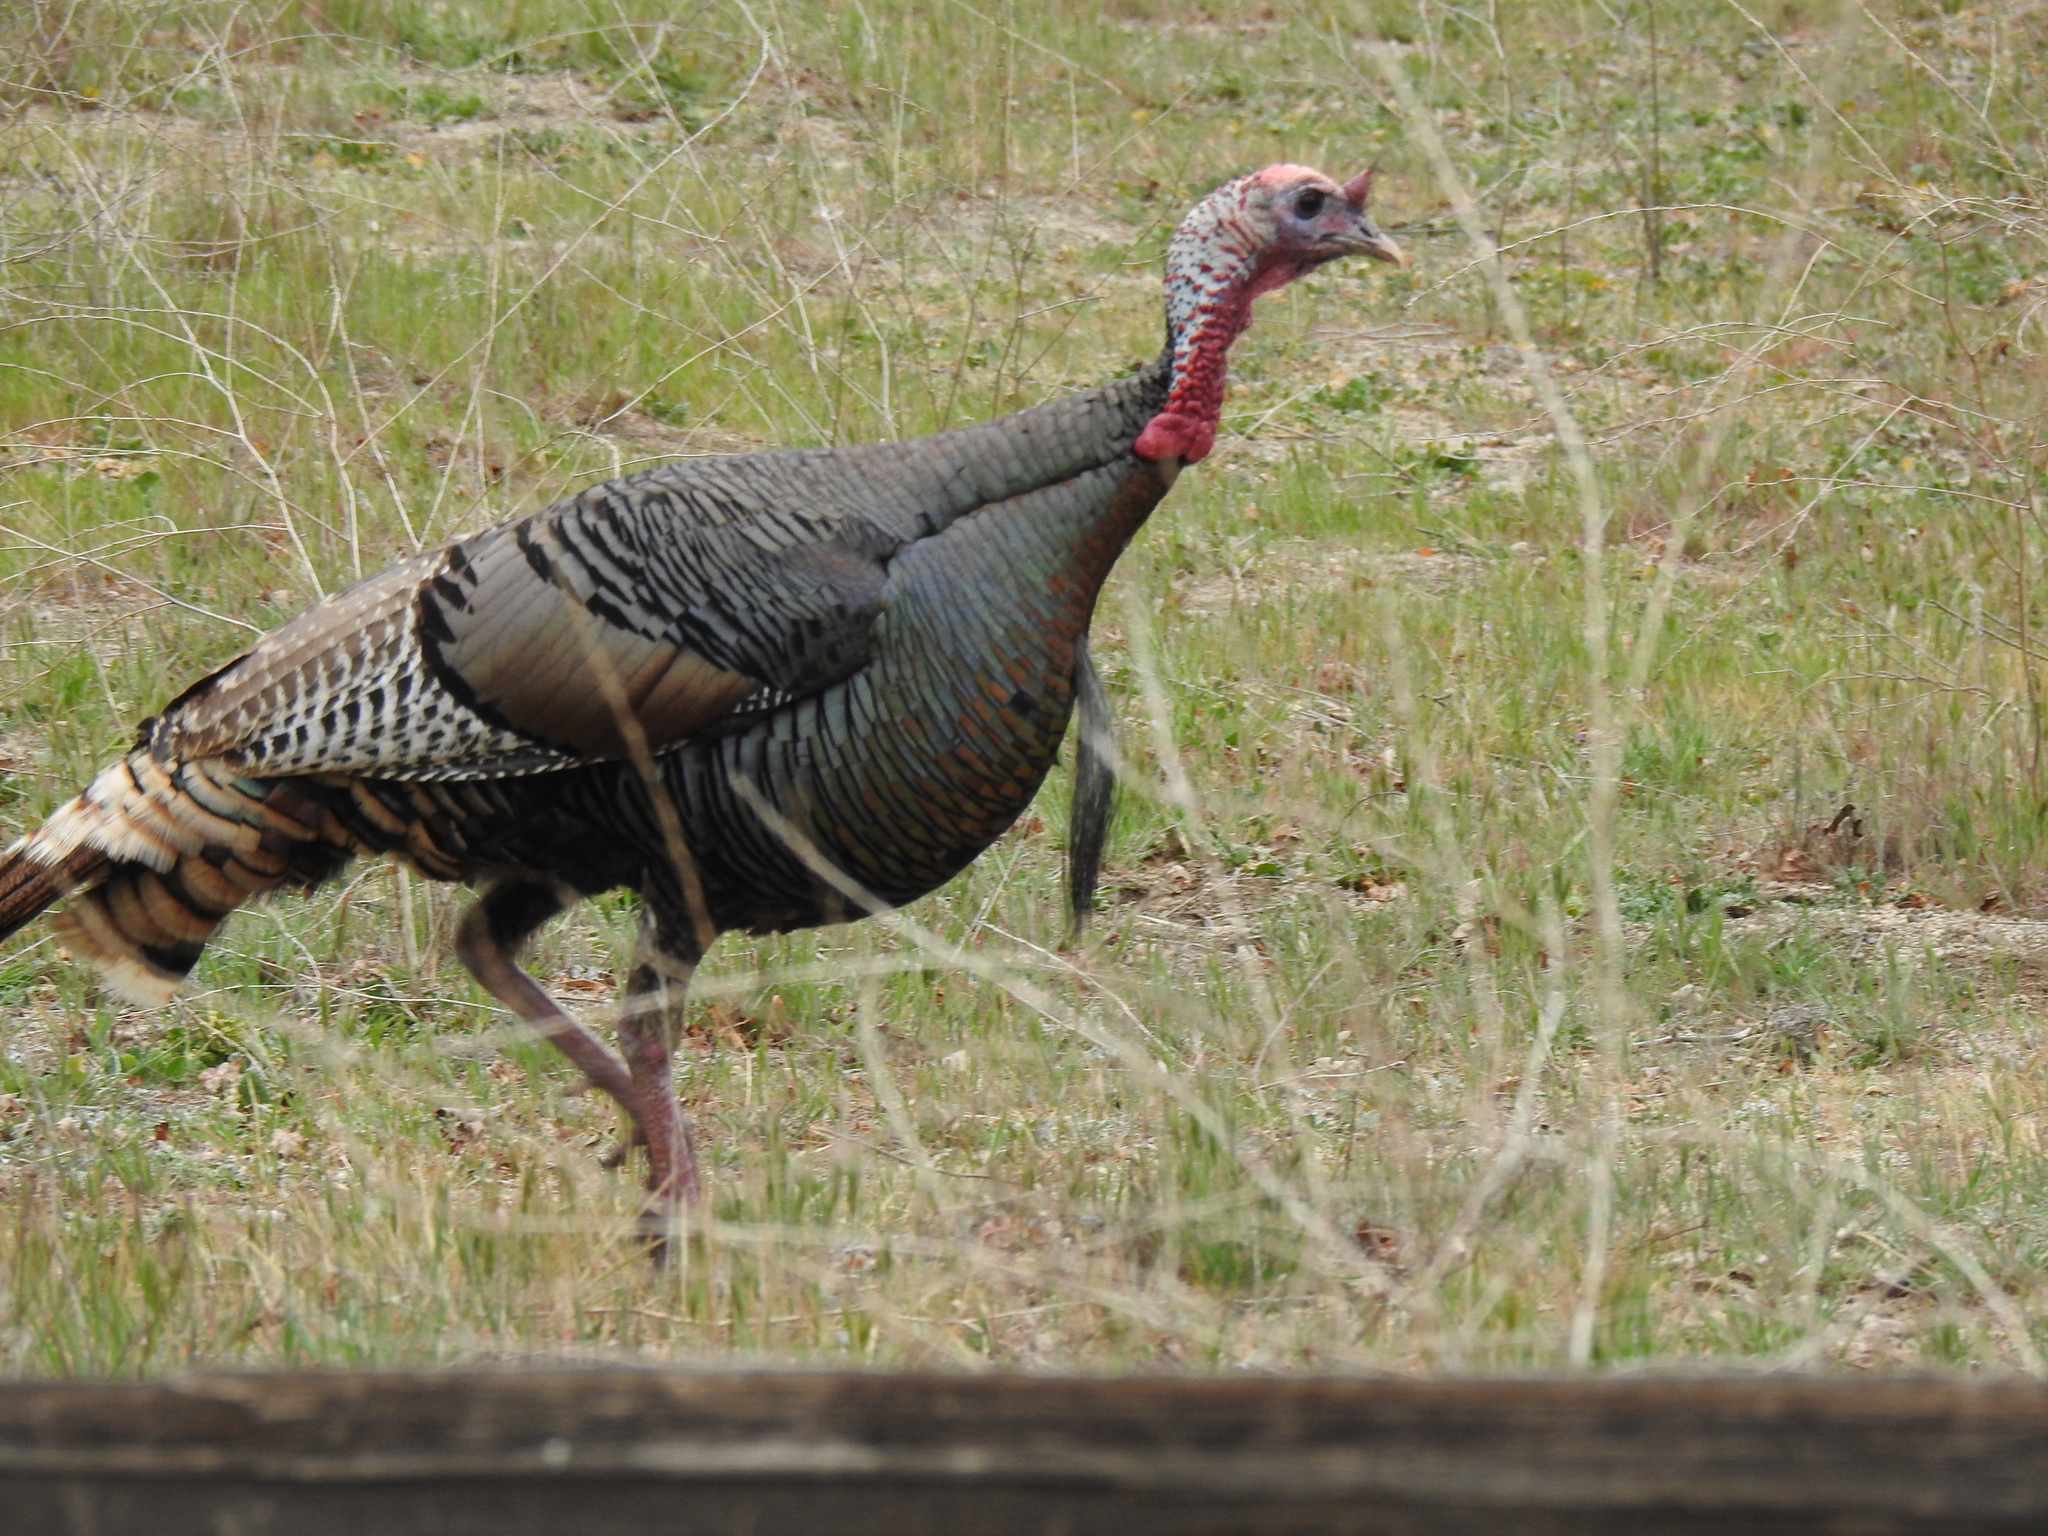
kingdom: Animalia
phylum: Chordata
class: Aves
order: Galliformes
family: Phasianidae
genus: Meleagris
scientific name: Meleagris gallopavo
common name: Wild turkey
